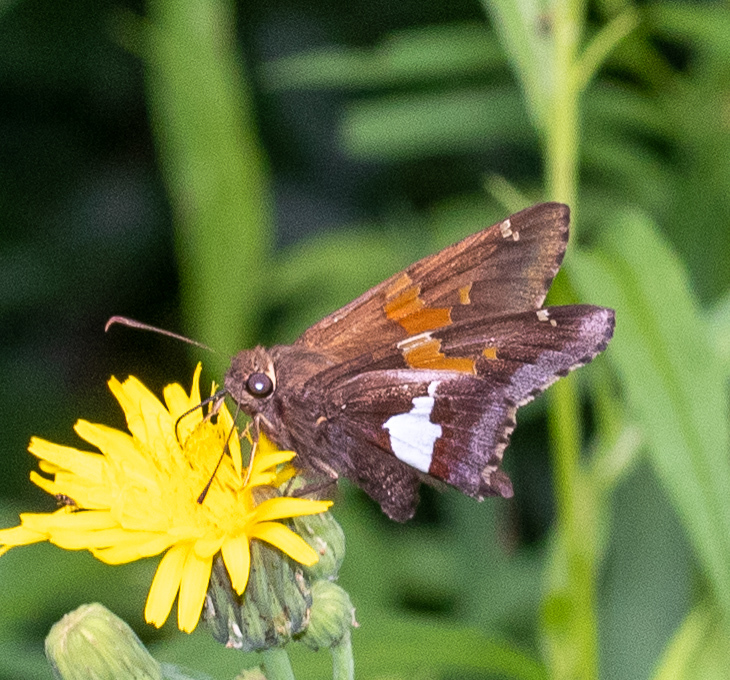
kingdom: Animalia
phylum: Arthropoda
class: Insecta
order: Lepidoptera
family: Hesperiidae
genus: Epargyreus
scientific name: Epargyreus clarus
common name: Silver-spotted skipper
